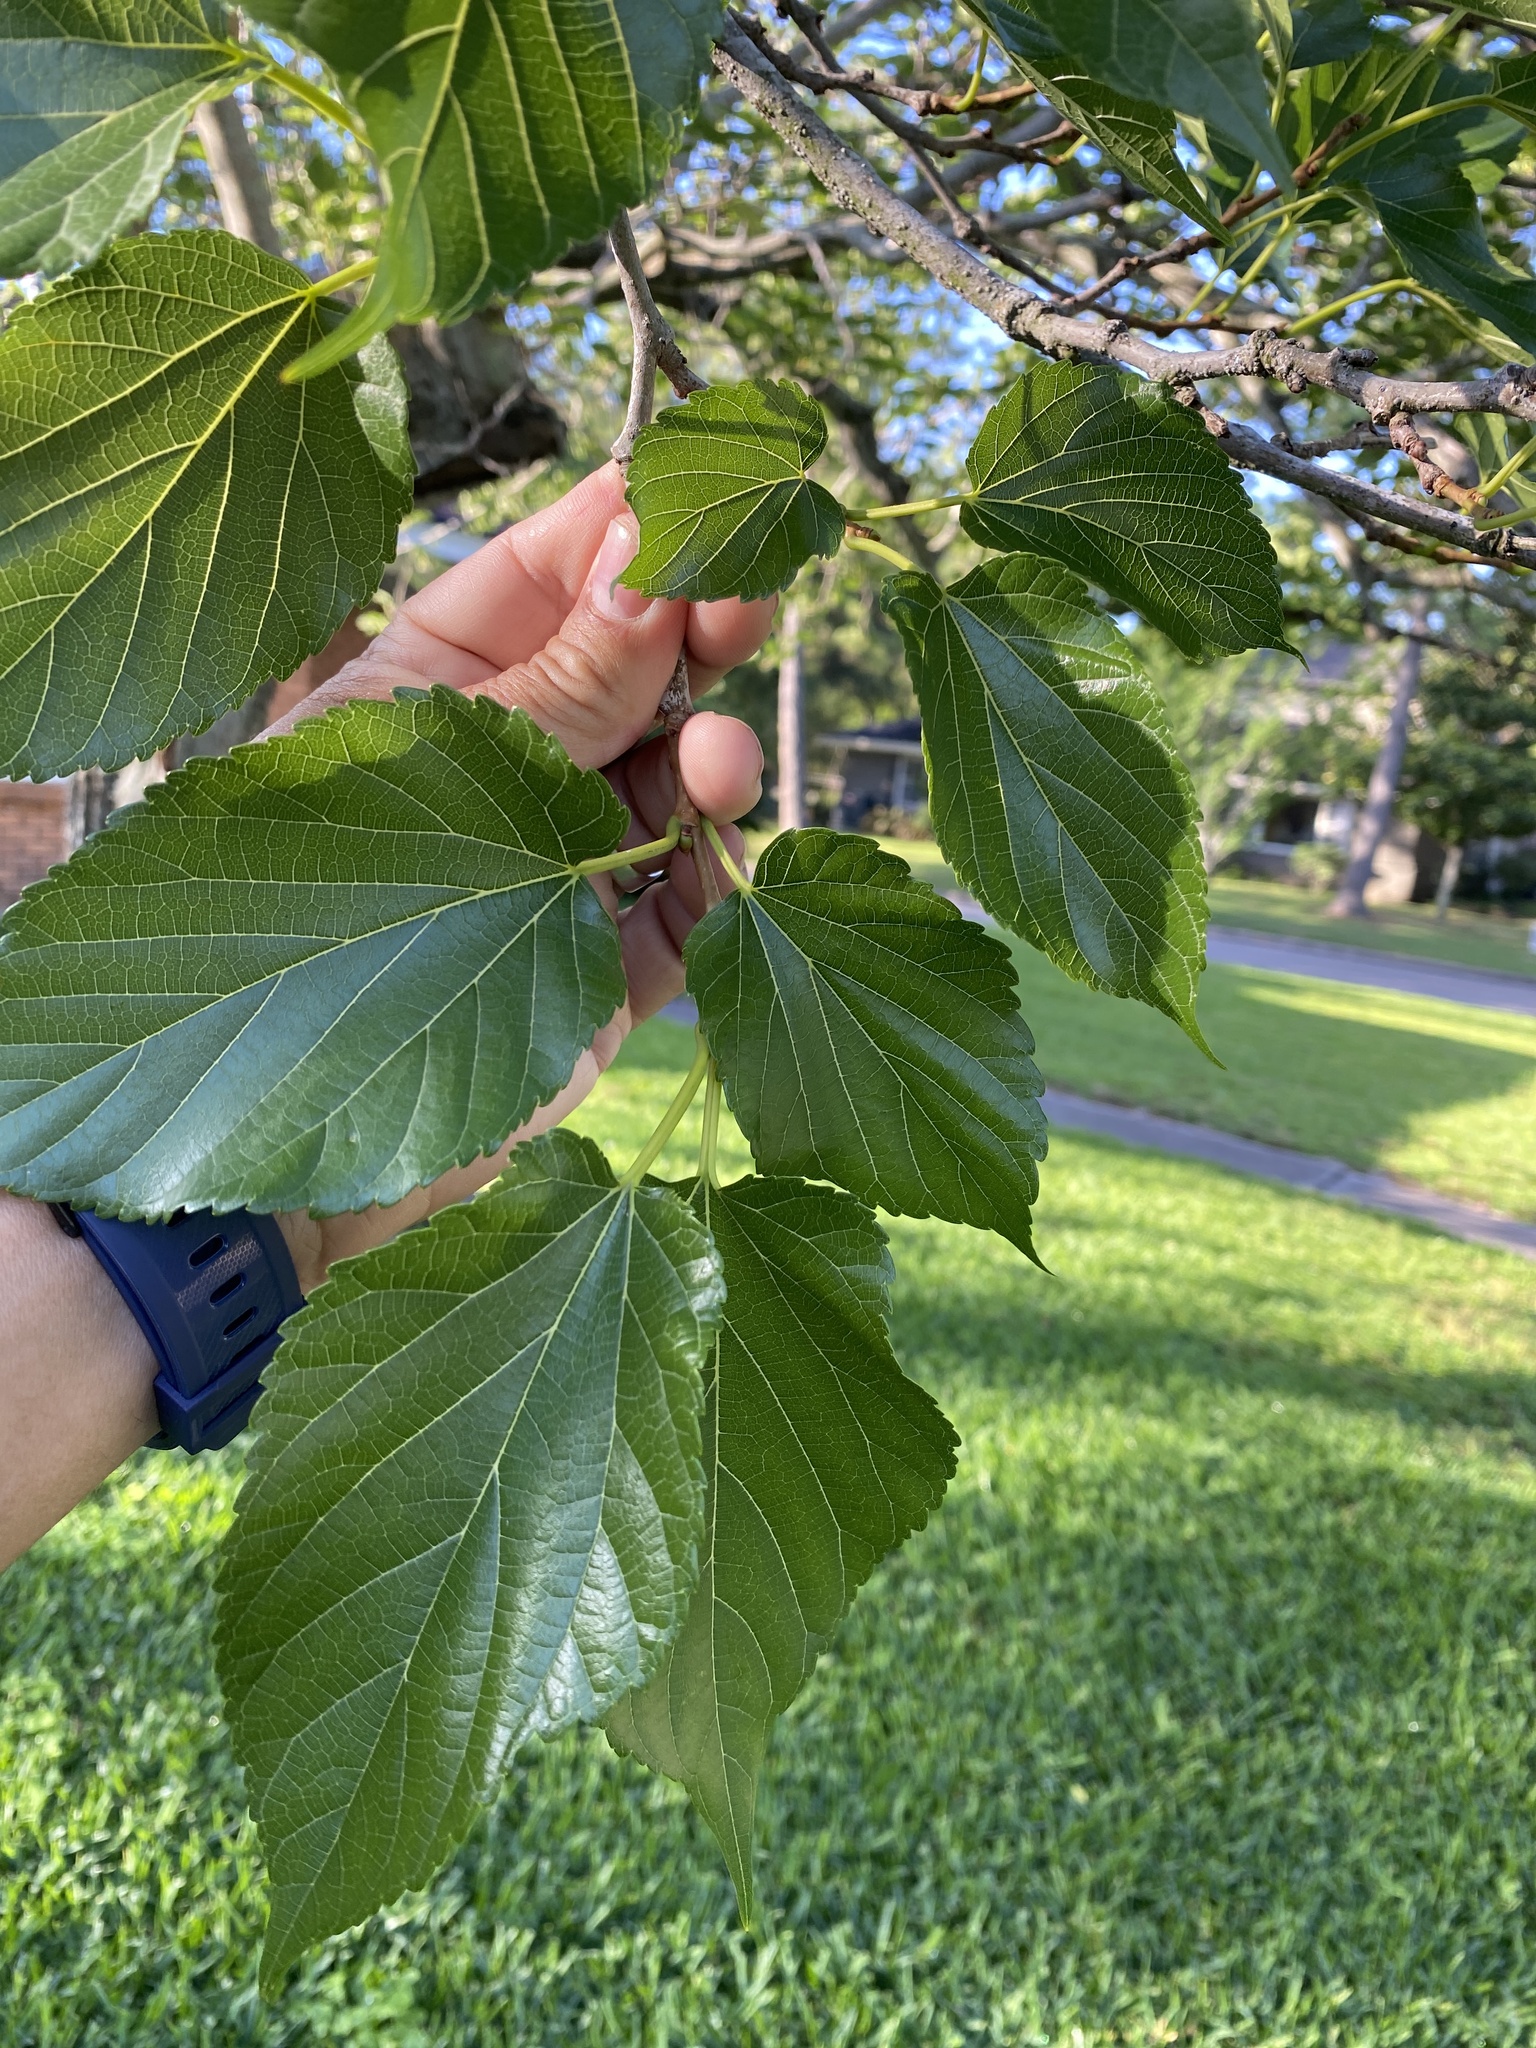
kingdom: Plantae
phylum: Tracheophyta
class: Magnoliopsida
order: Rosales
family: Moraceae
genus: Morus
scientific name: Morus alba
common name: White mulberry
